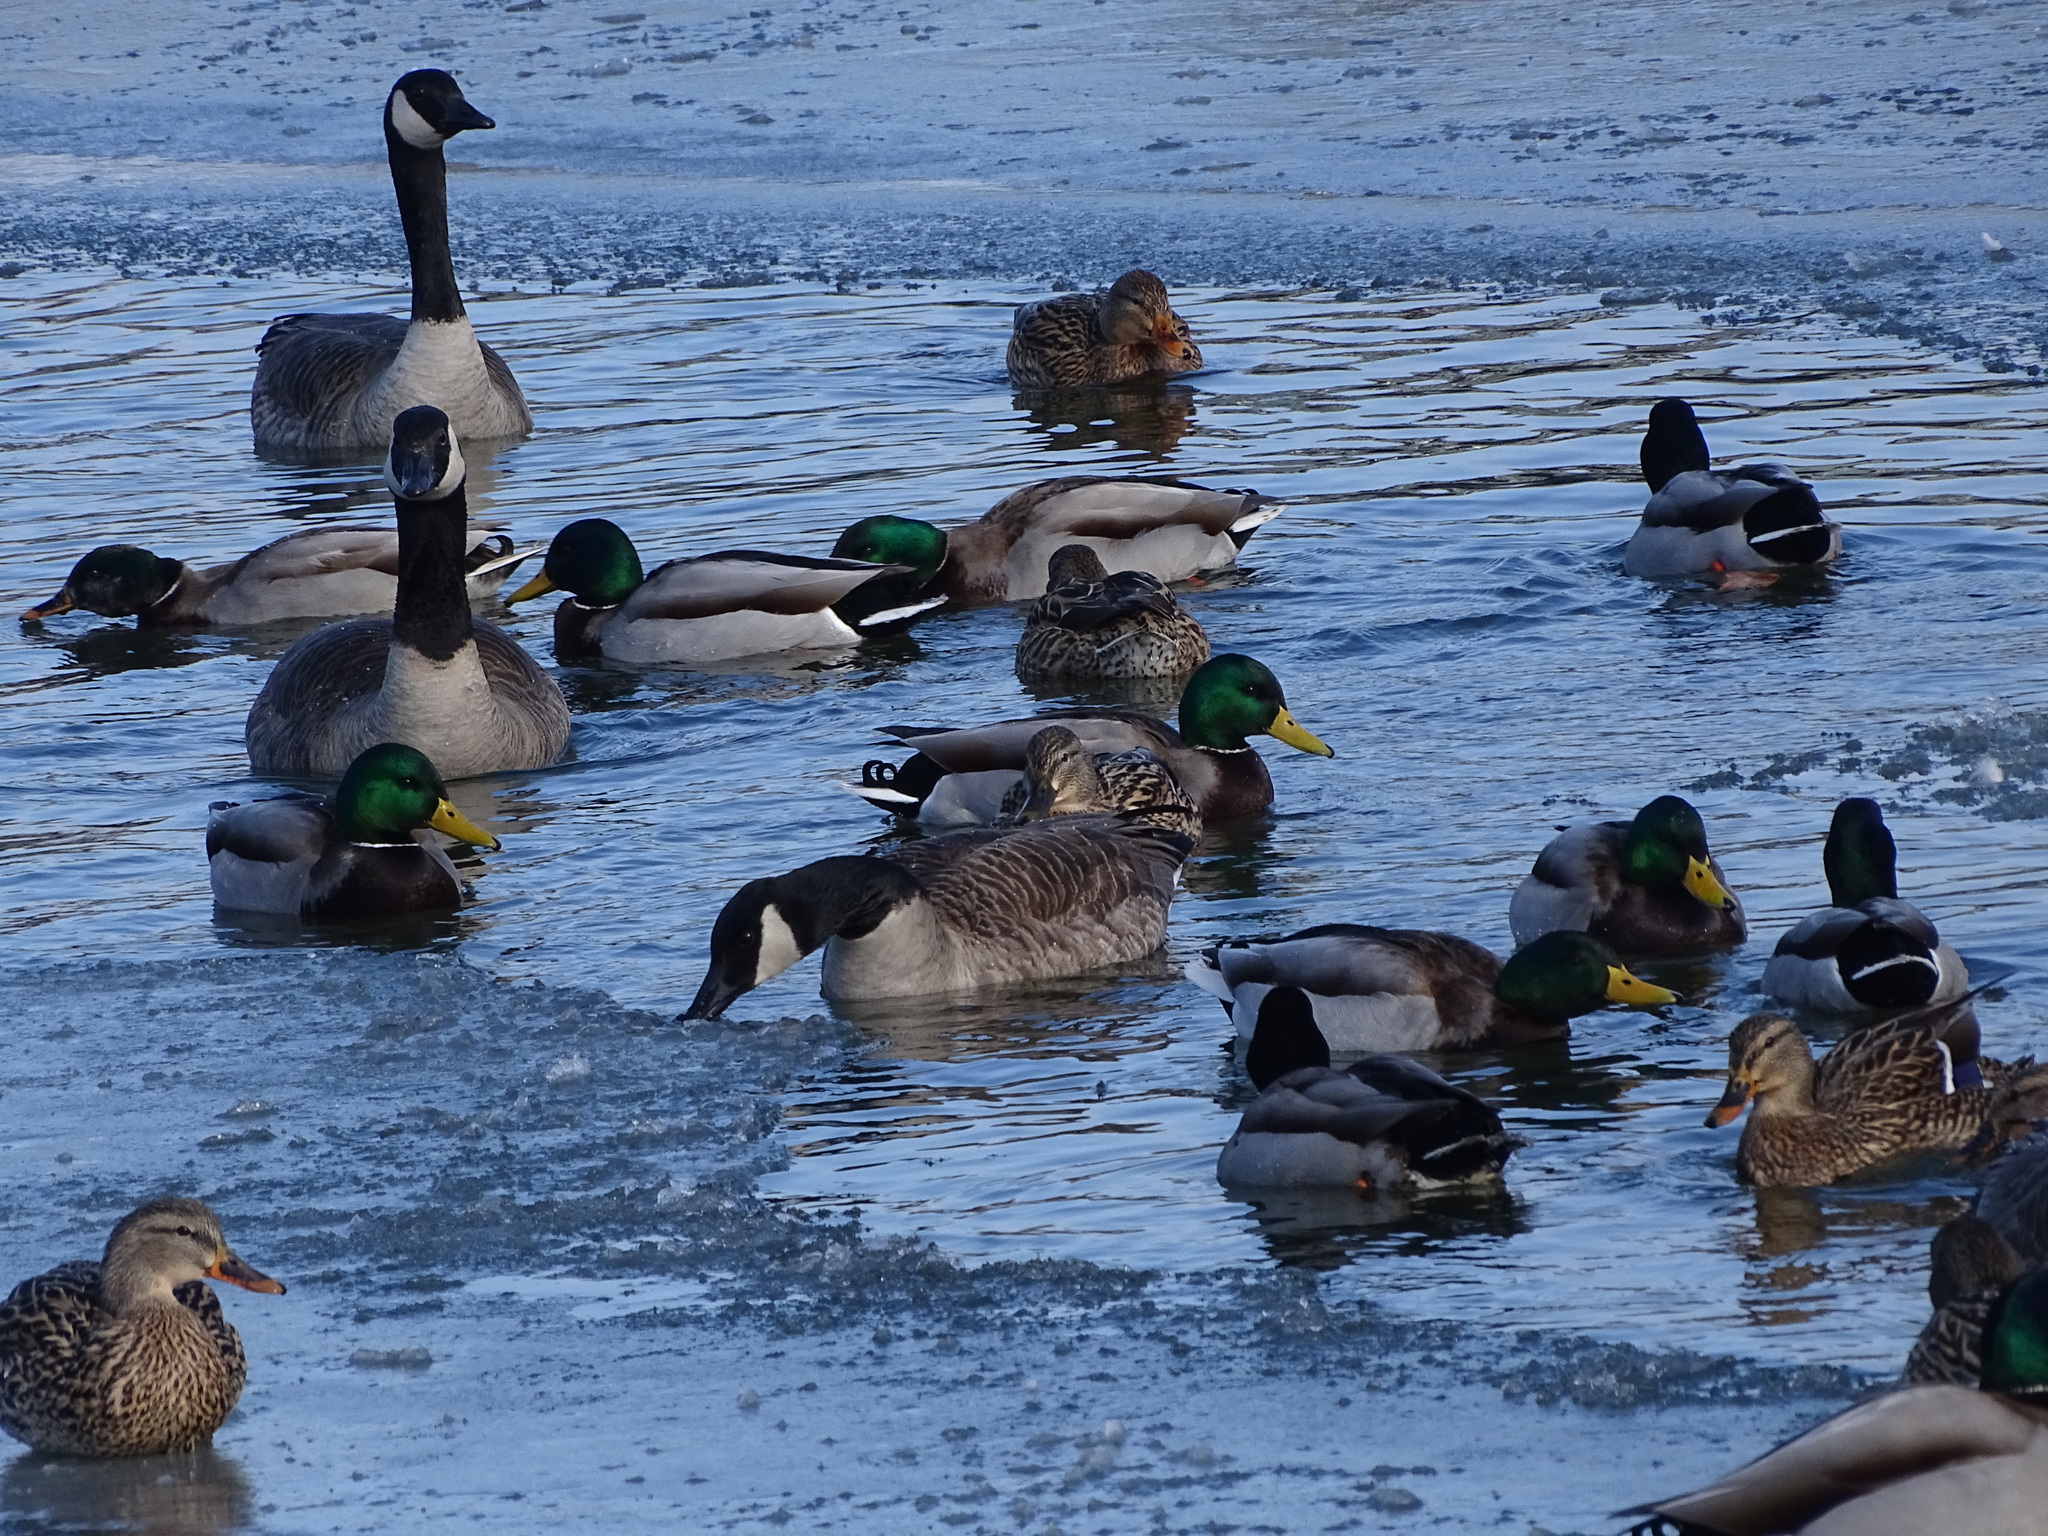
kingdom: Animalia
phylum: Chordata
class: Aves
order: Anseriformes
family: Anatidae
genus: Anas
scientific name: Anas platyrhynchos
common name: Mallard
